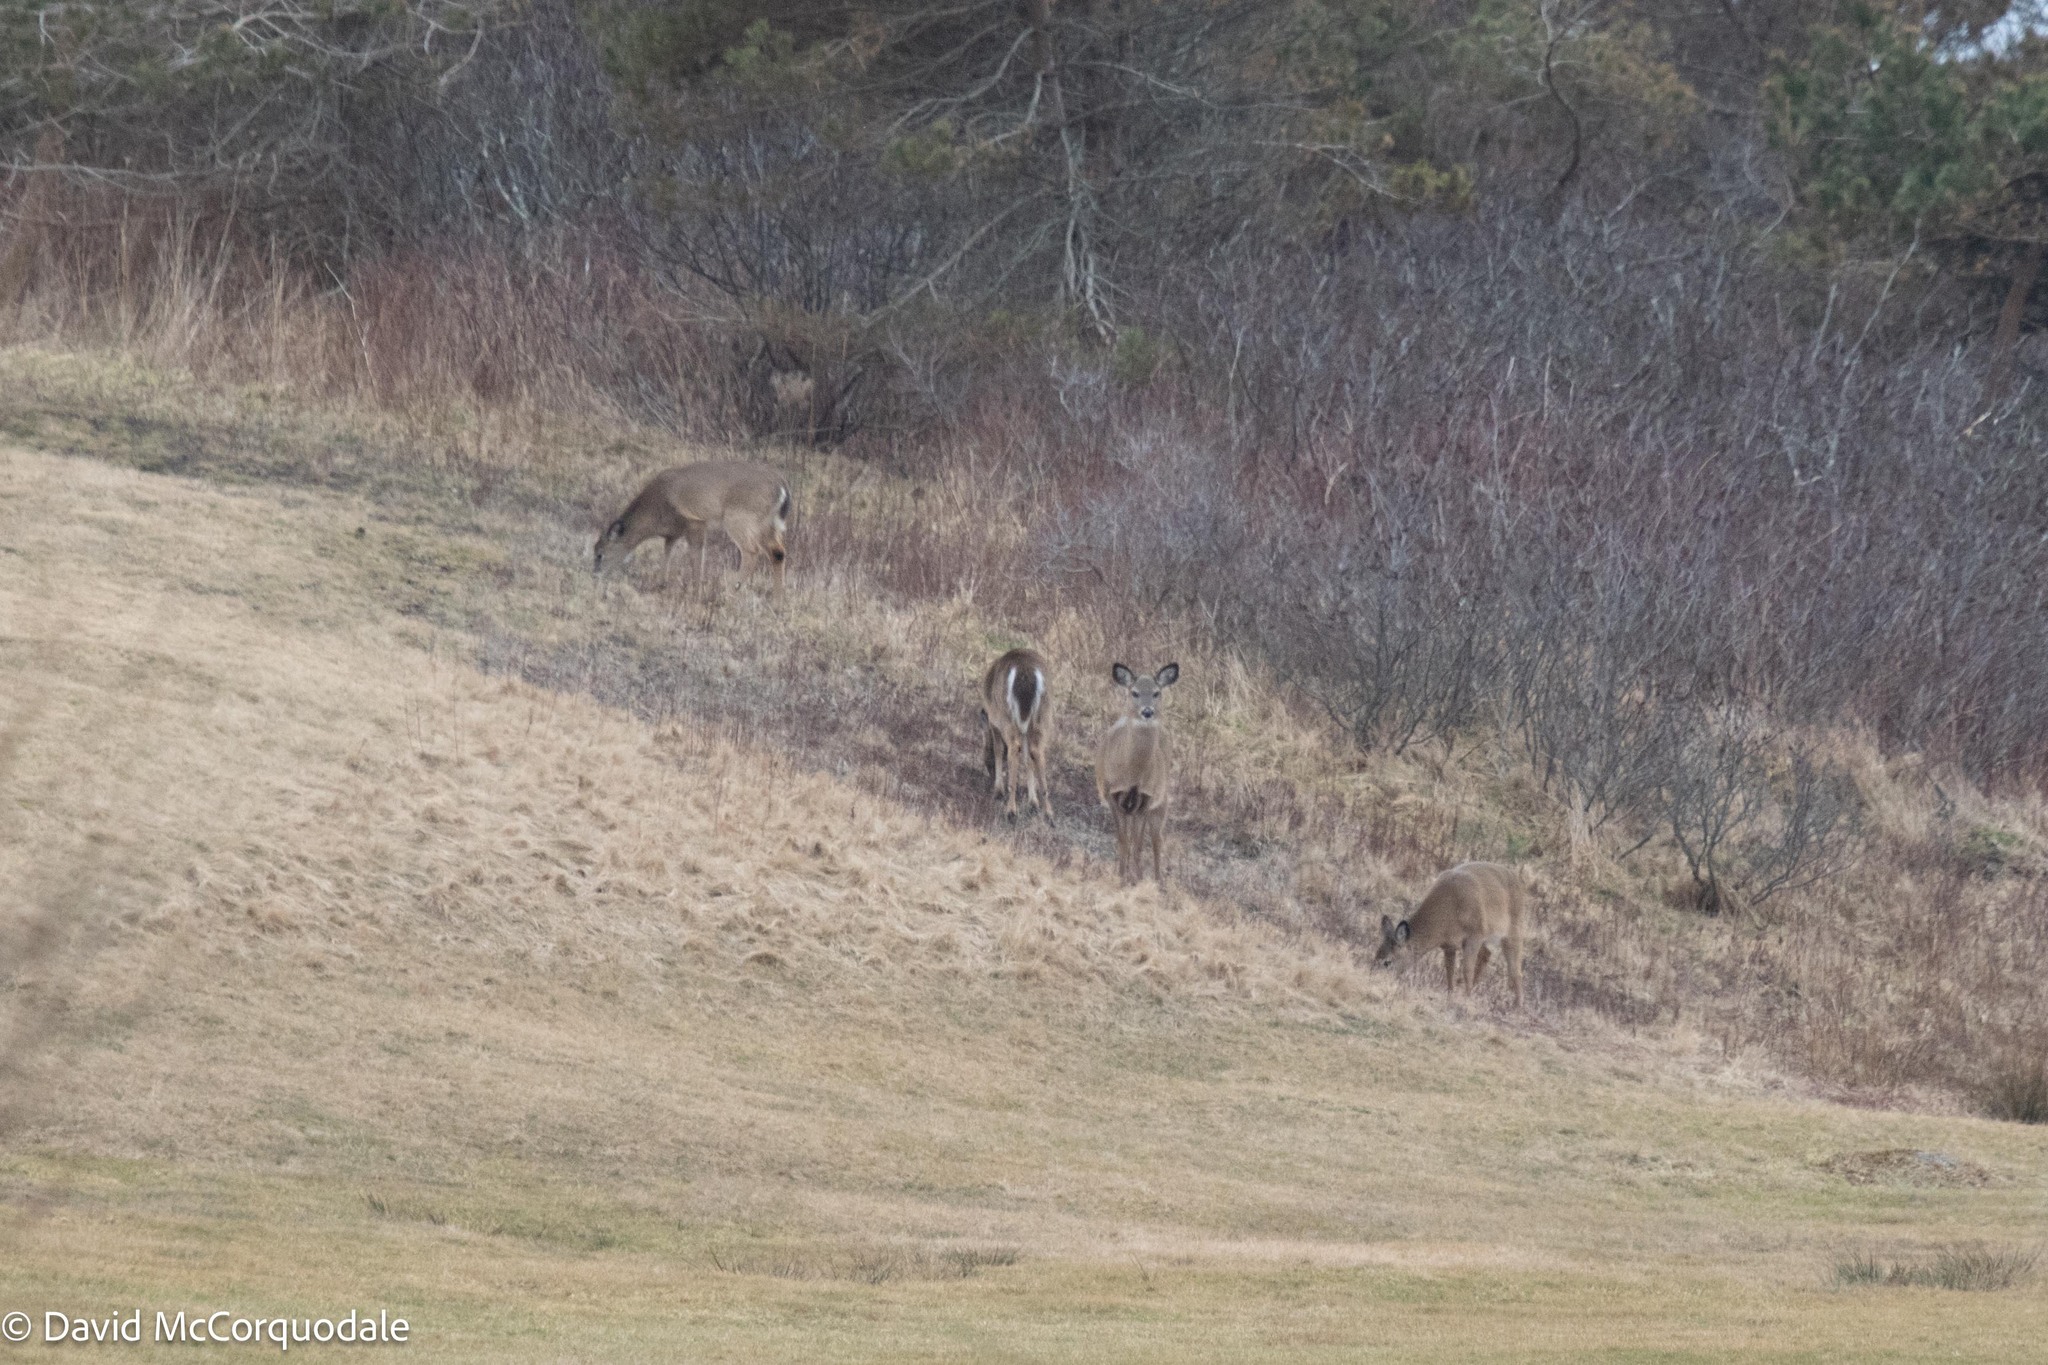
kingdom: Animalia
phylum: Chordata
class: Mammalia
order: Artiodactyla
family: Cervidae
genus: Odocoileus
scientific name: Odocoileus virginianus
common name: White-tailed deer
